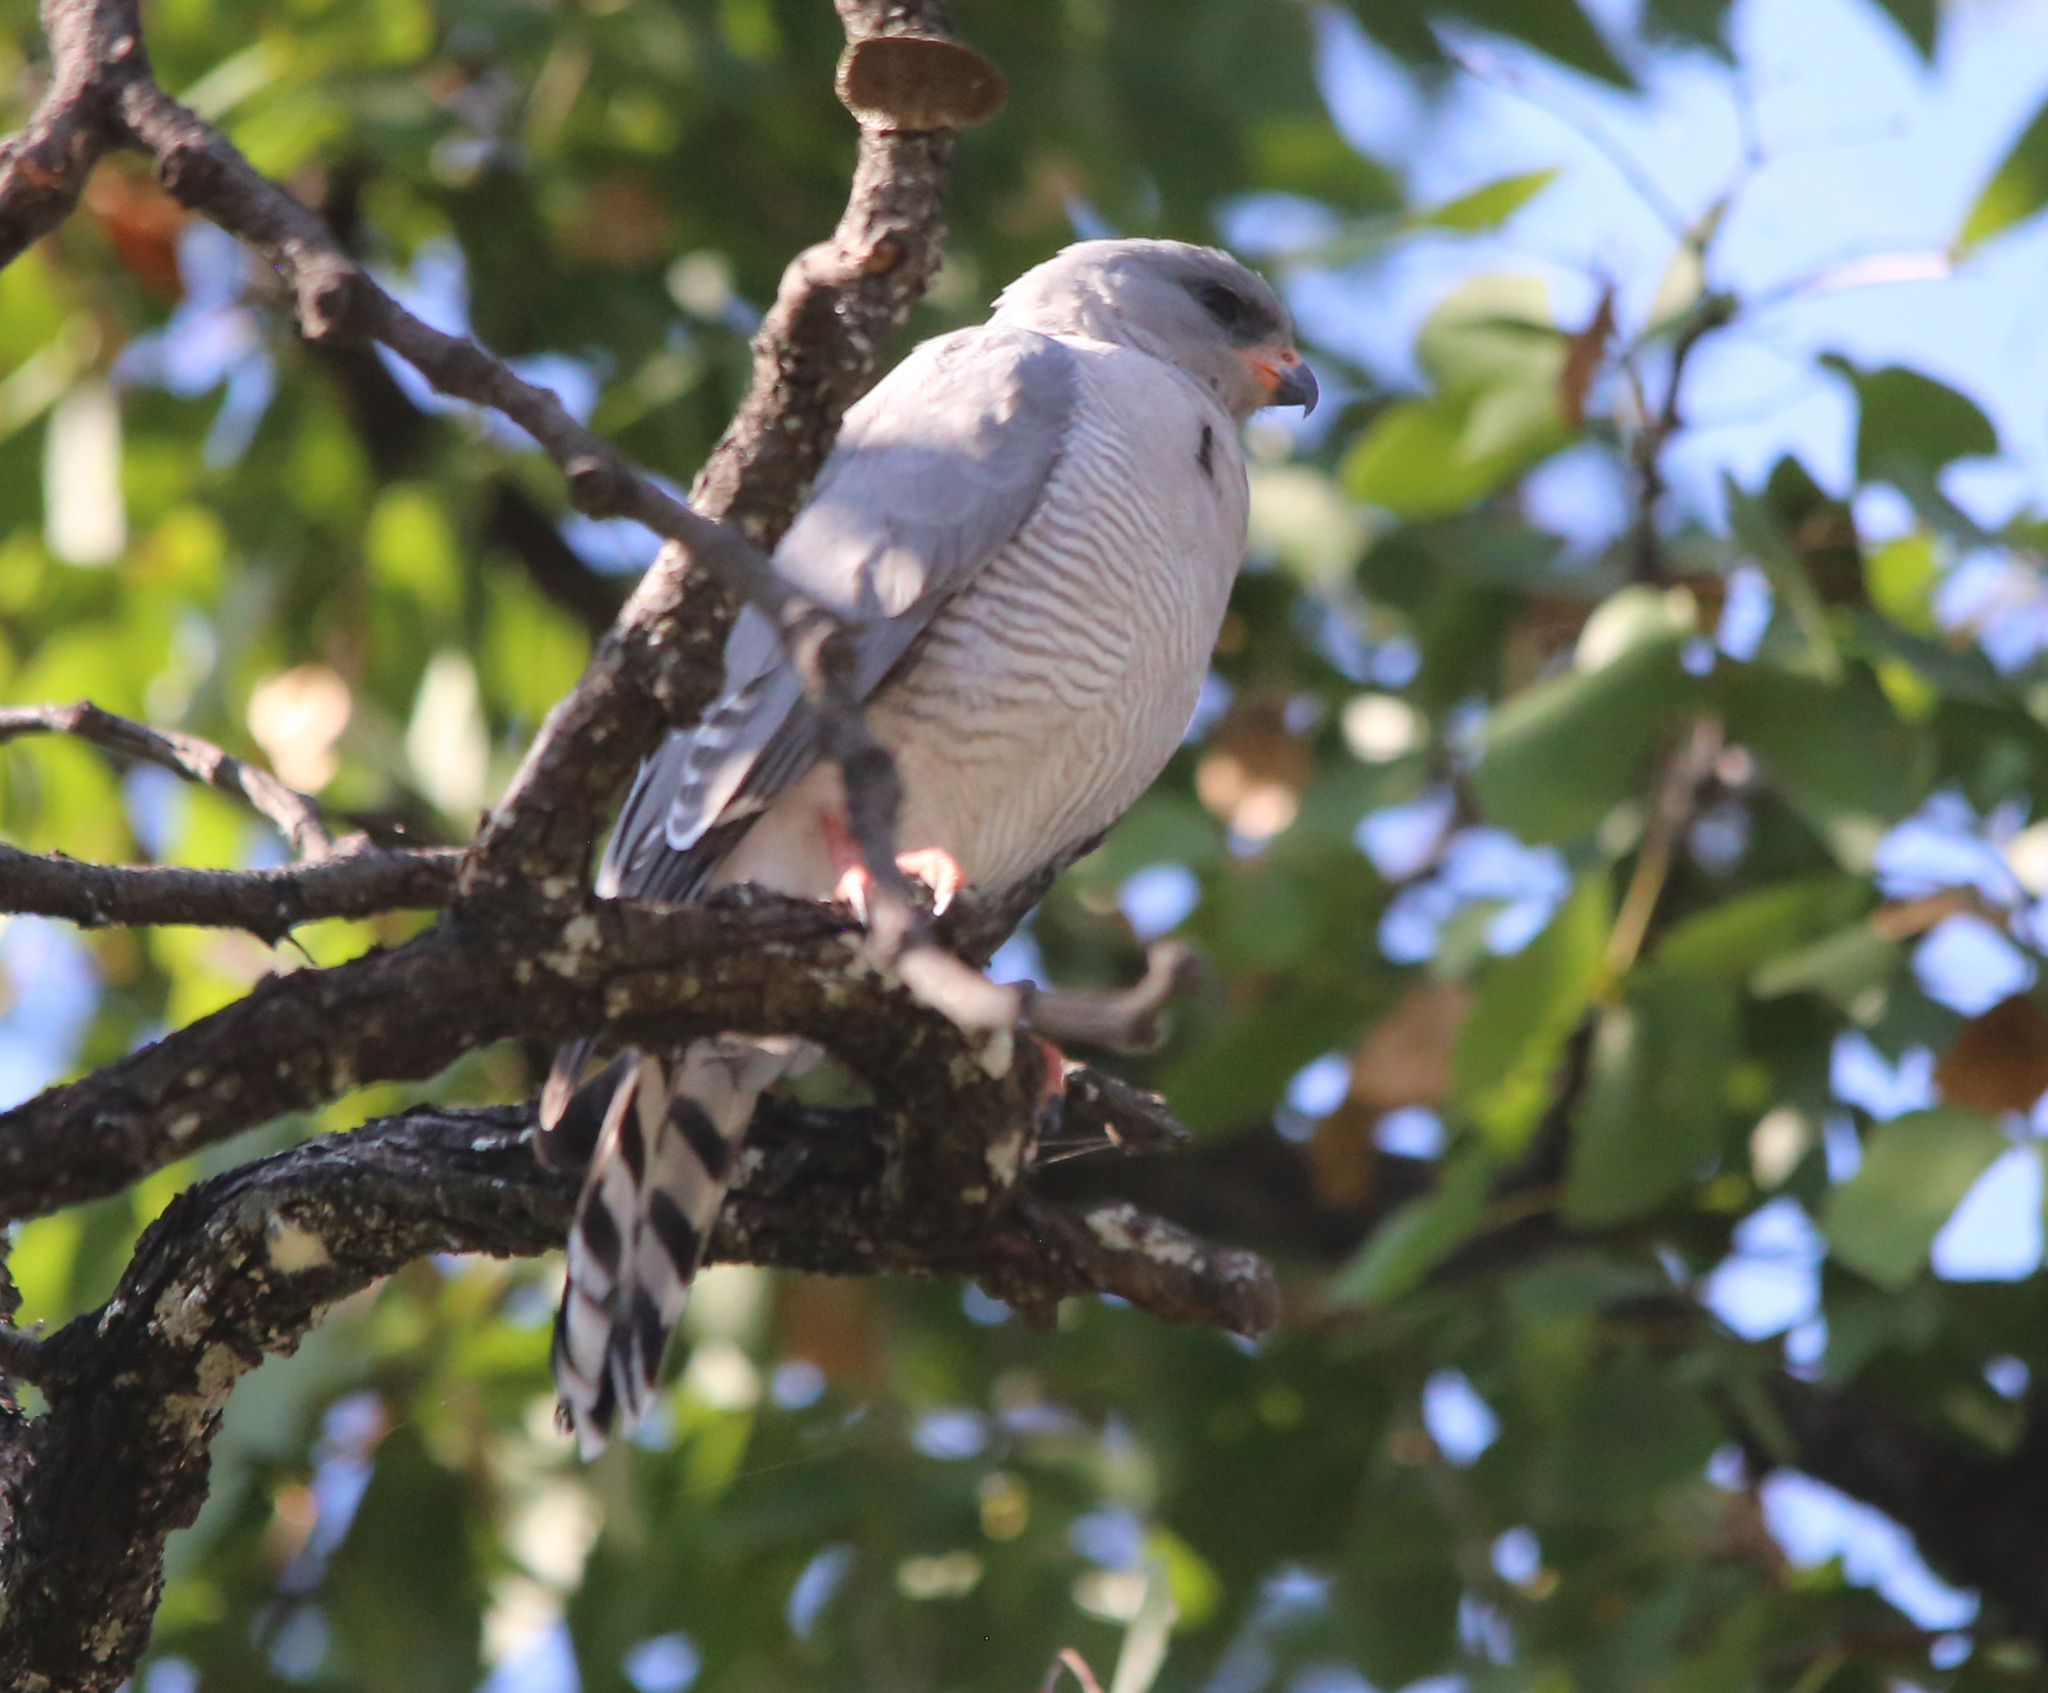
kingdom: Animalia
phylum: Chordata
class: Aves
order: Accipitriformes
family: Accipitridae
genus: Micronisus
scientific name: Micronisus gabar
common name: Gabar goshawk
